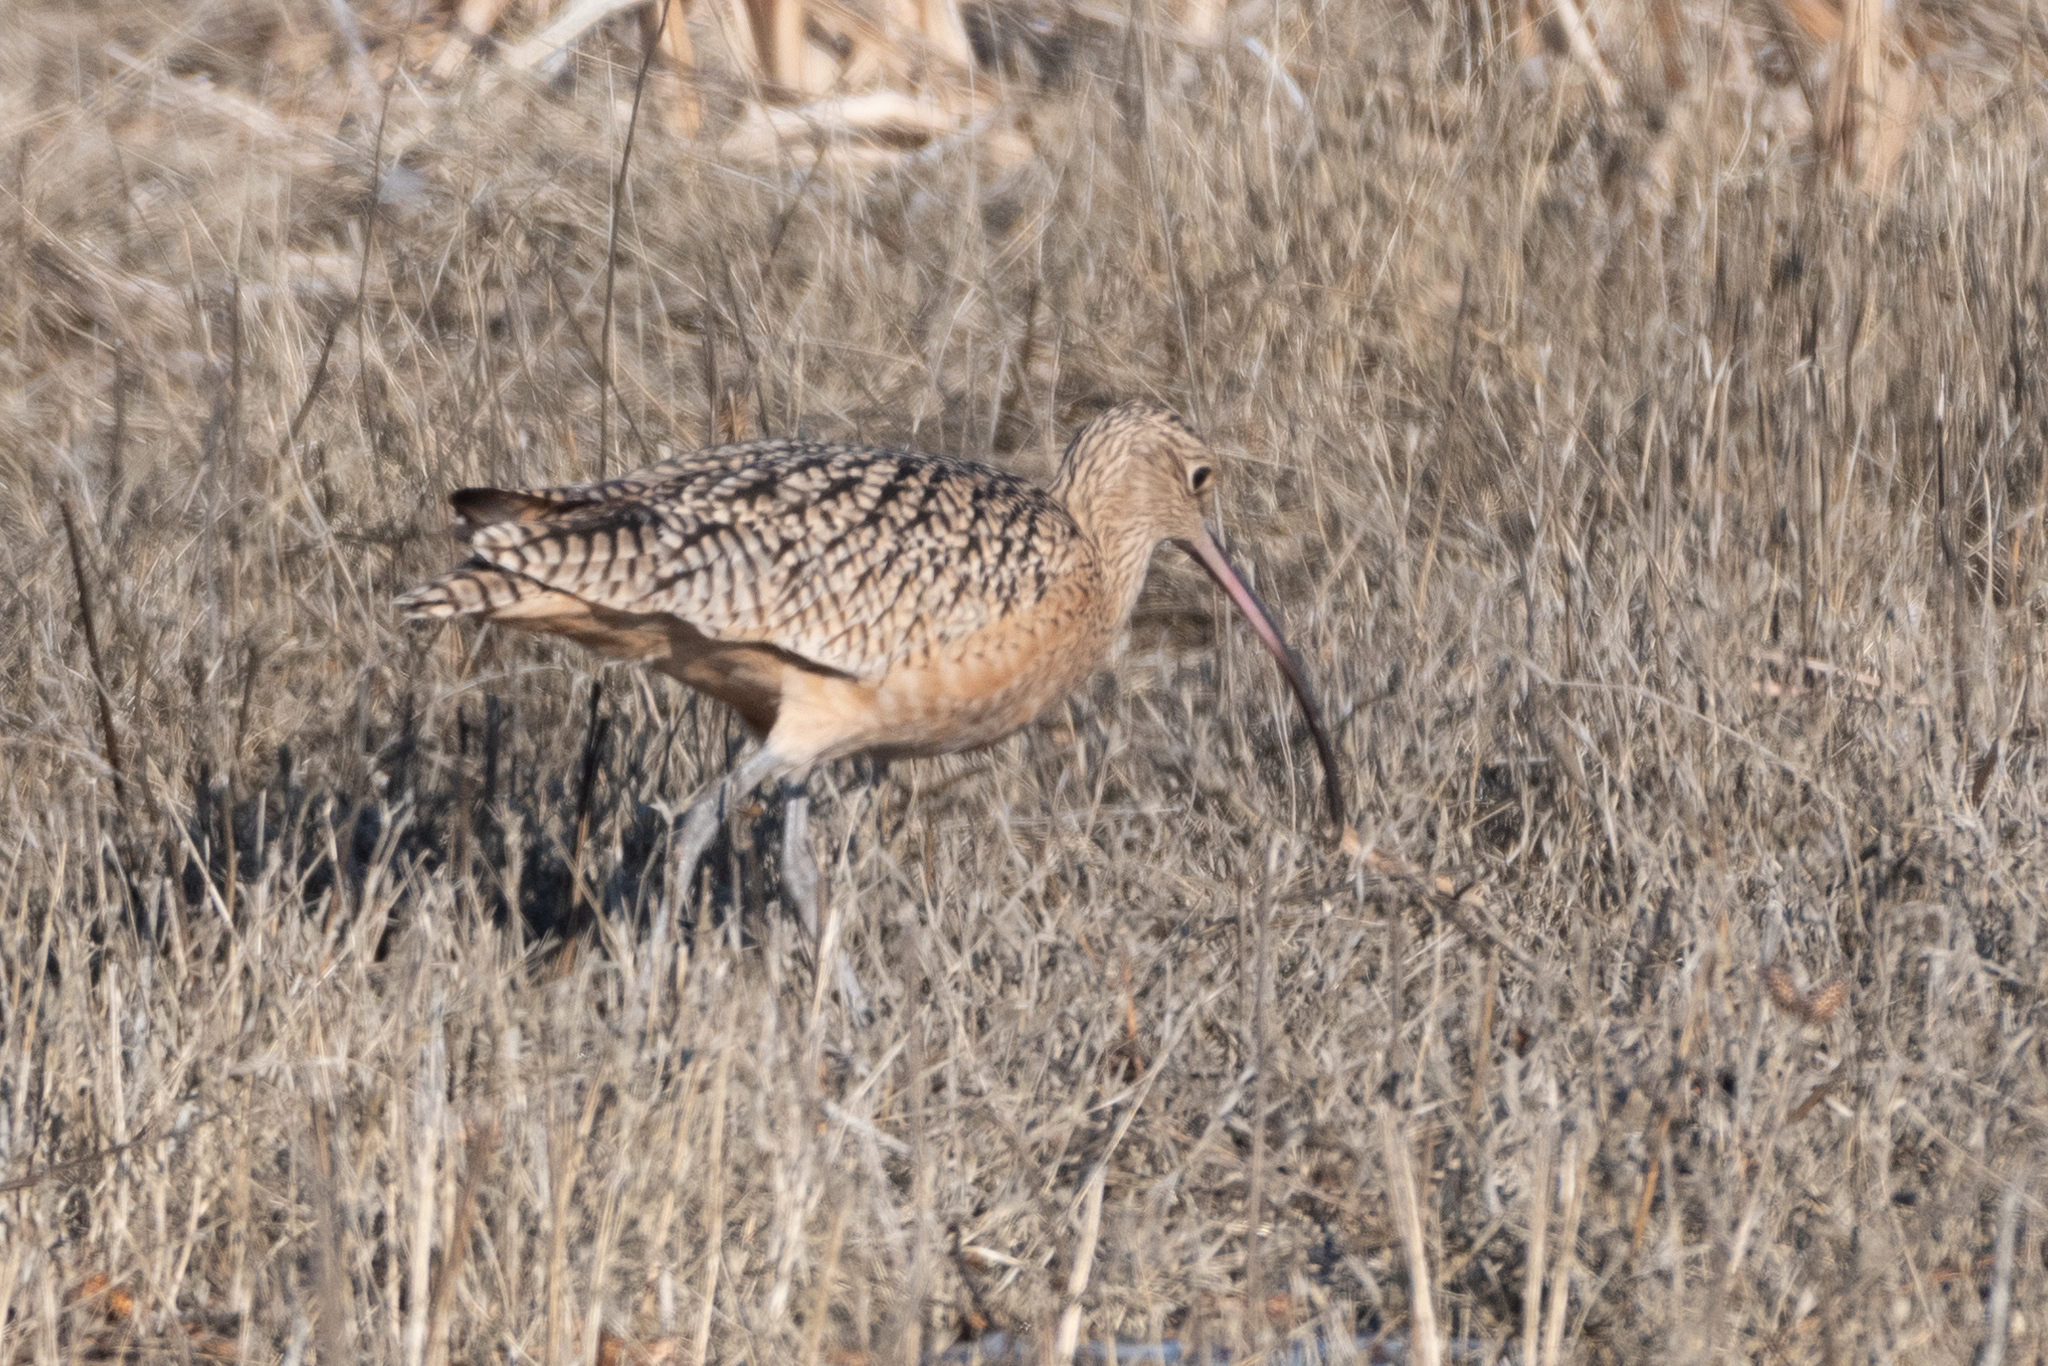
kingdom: Animalia
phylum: Chordata
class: Aves
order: Charadriiformes
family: Scolopacidae
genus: Numenius
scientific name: Numenius americanus
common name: Long-billed curlew
